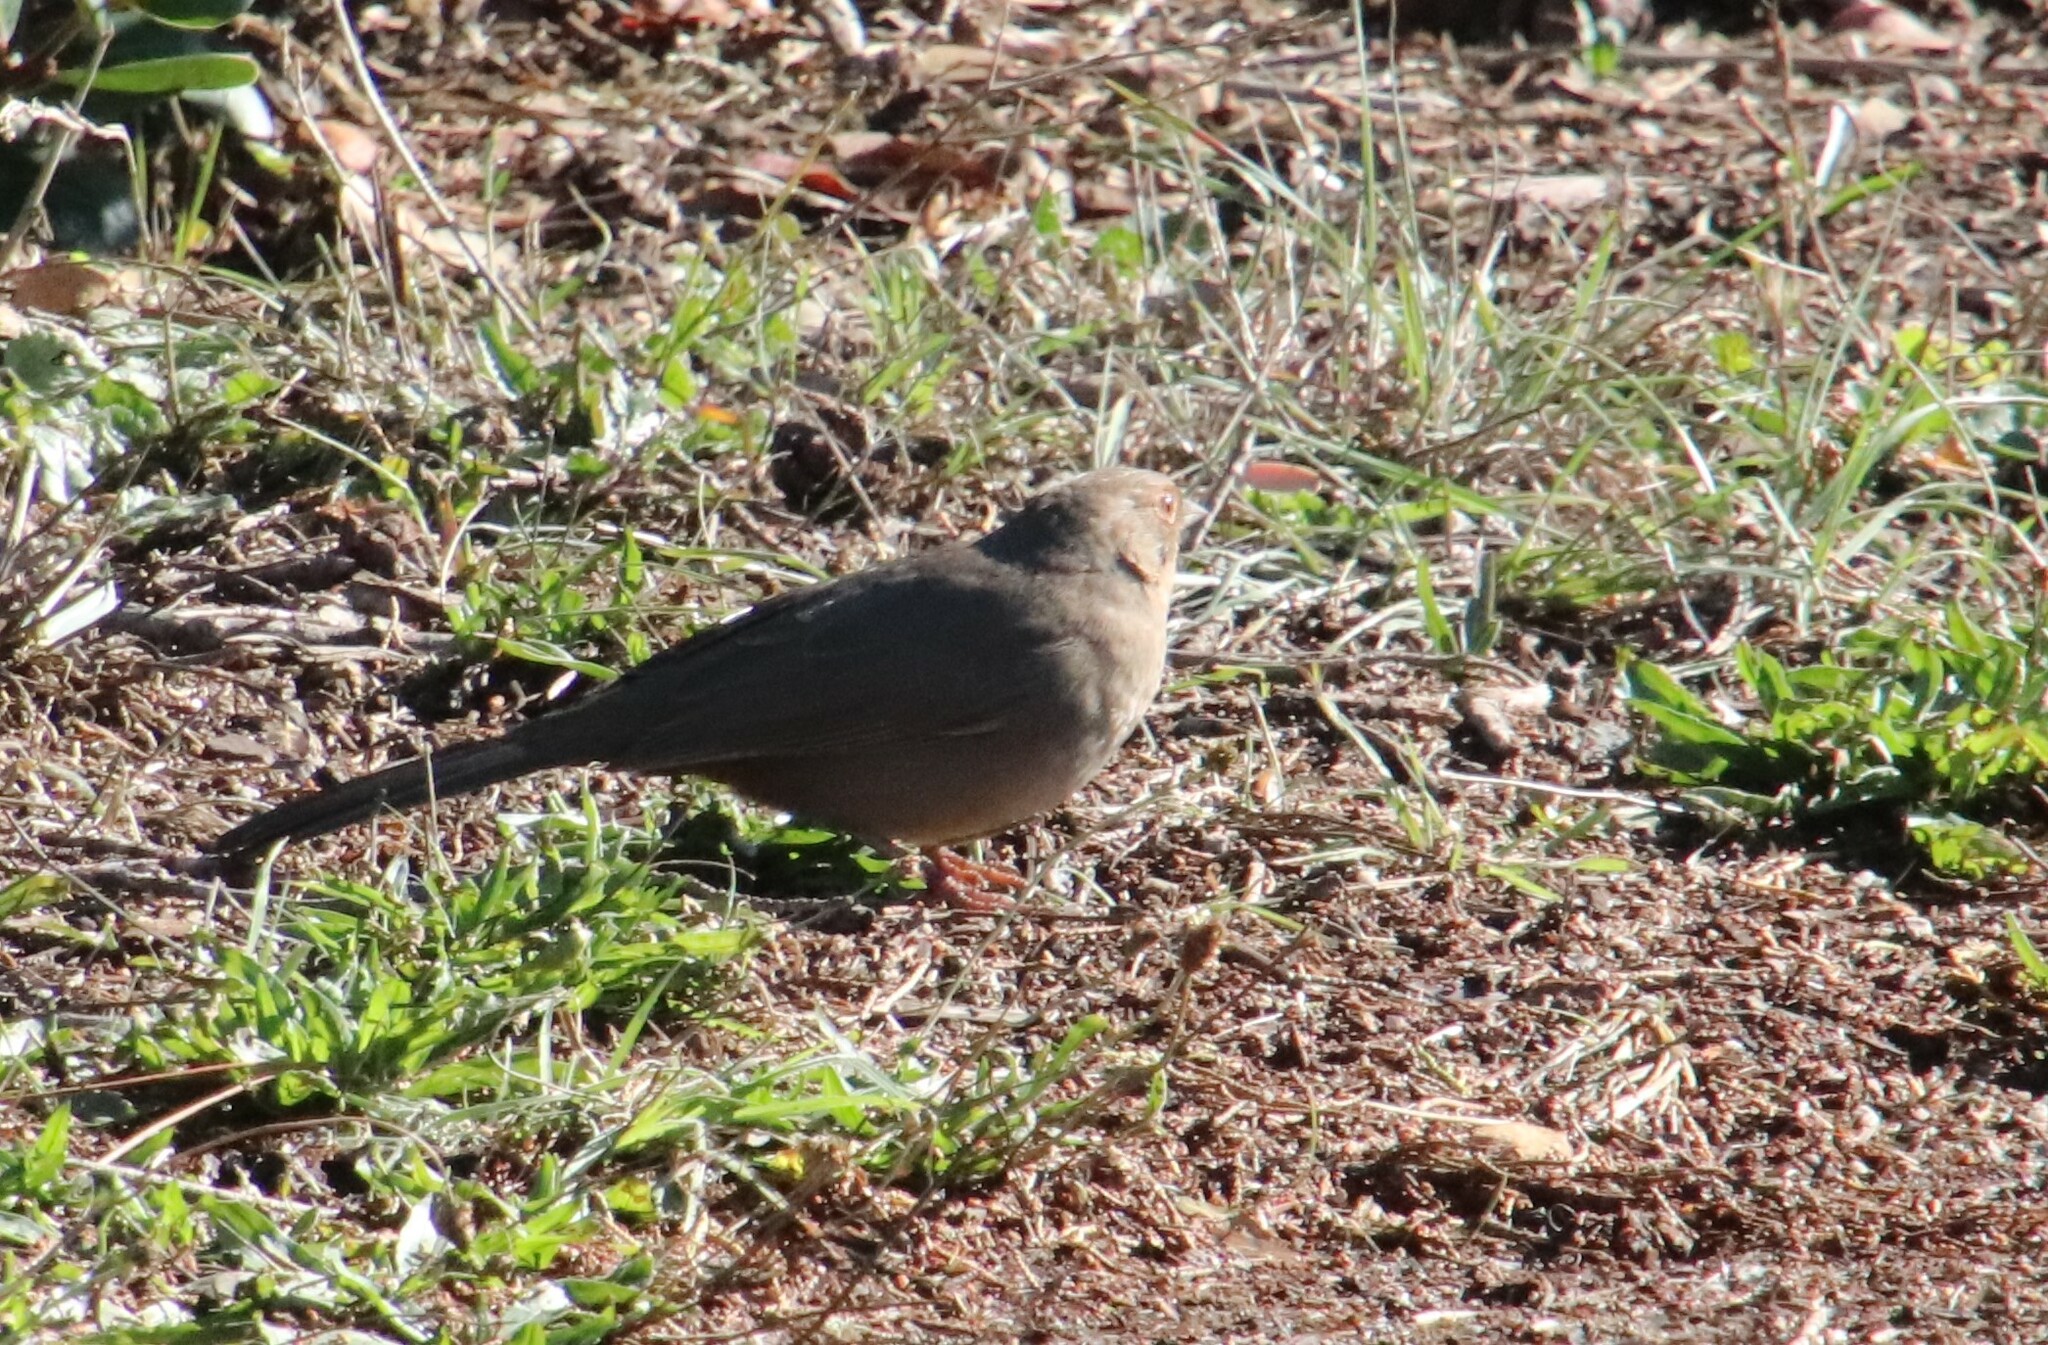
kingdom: Animalia
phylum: Chordata
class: Aves
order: Passeriformes
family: Passerellidae
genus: Melozone
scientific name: Melozone crissalis
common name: California towhee
